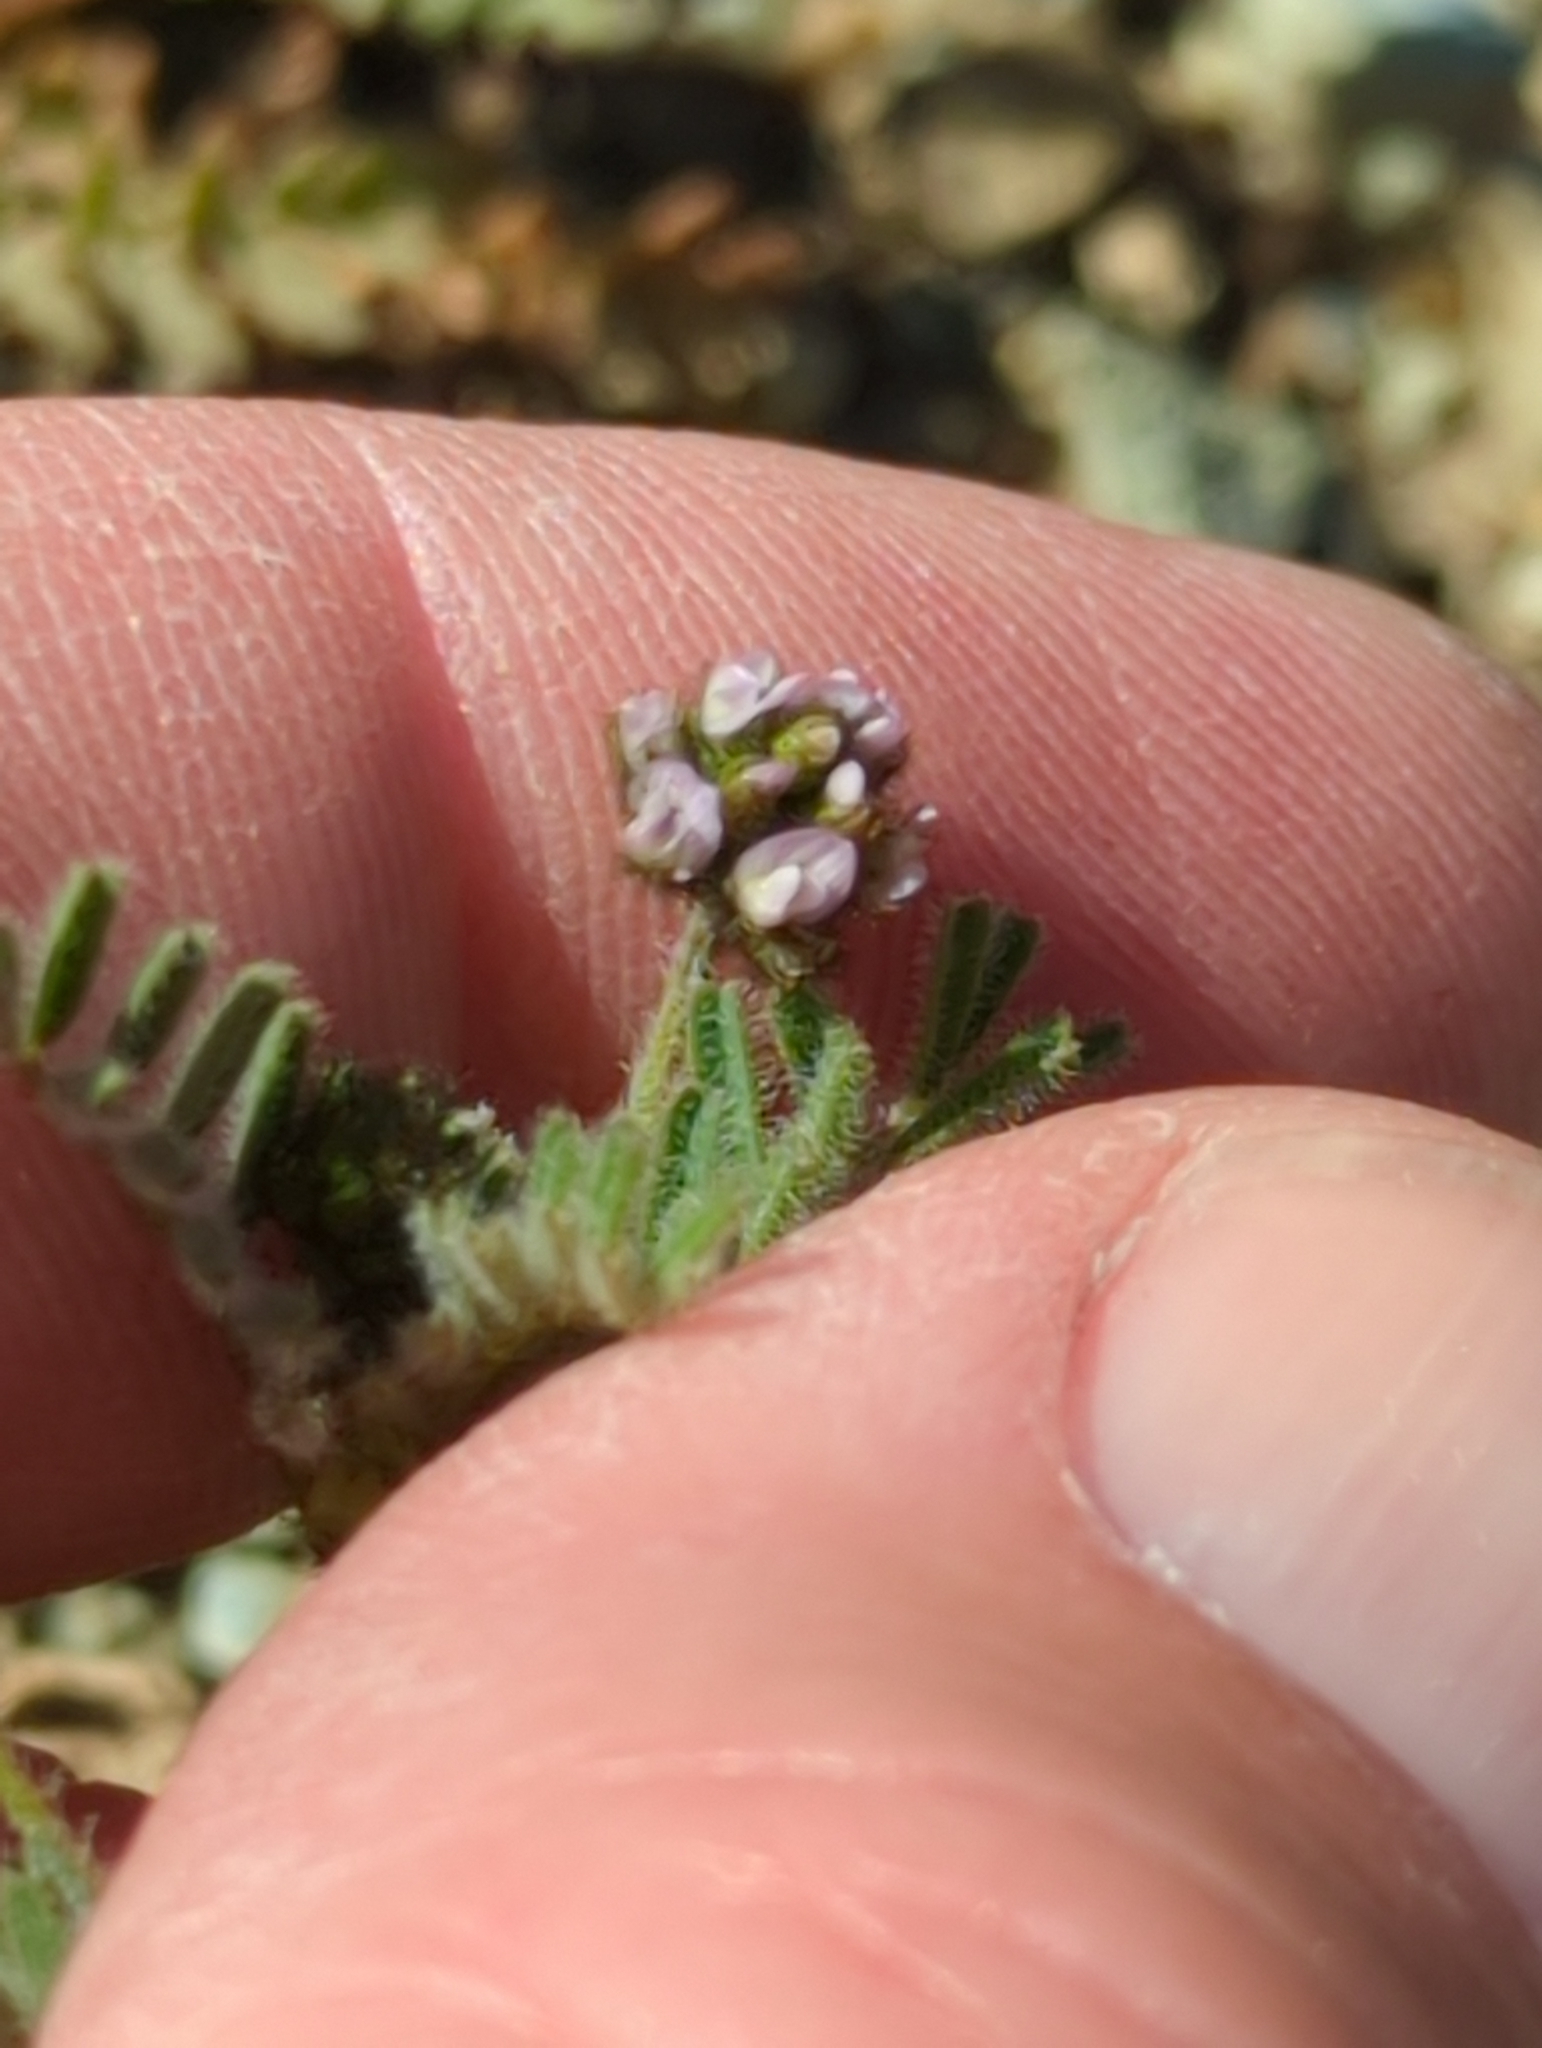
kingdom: Plantae
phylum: Tracheophyta
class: Magnoliopsida
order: Fabales
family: Fabaceae
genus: Astragalus
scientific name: Astragalus gambelianus
